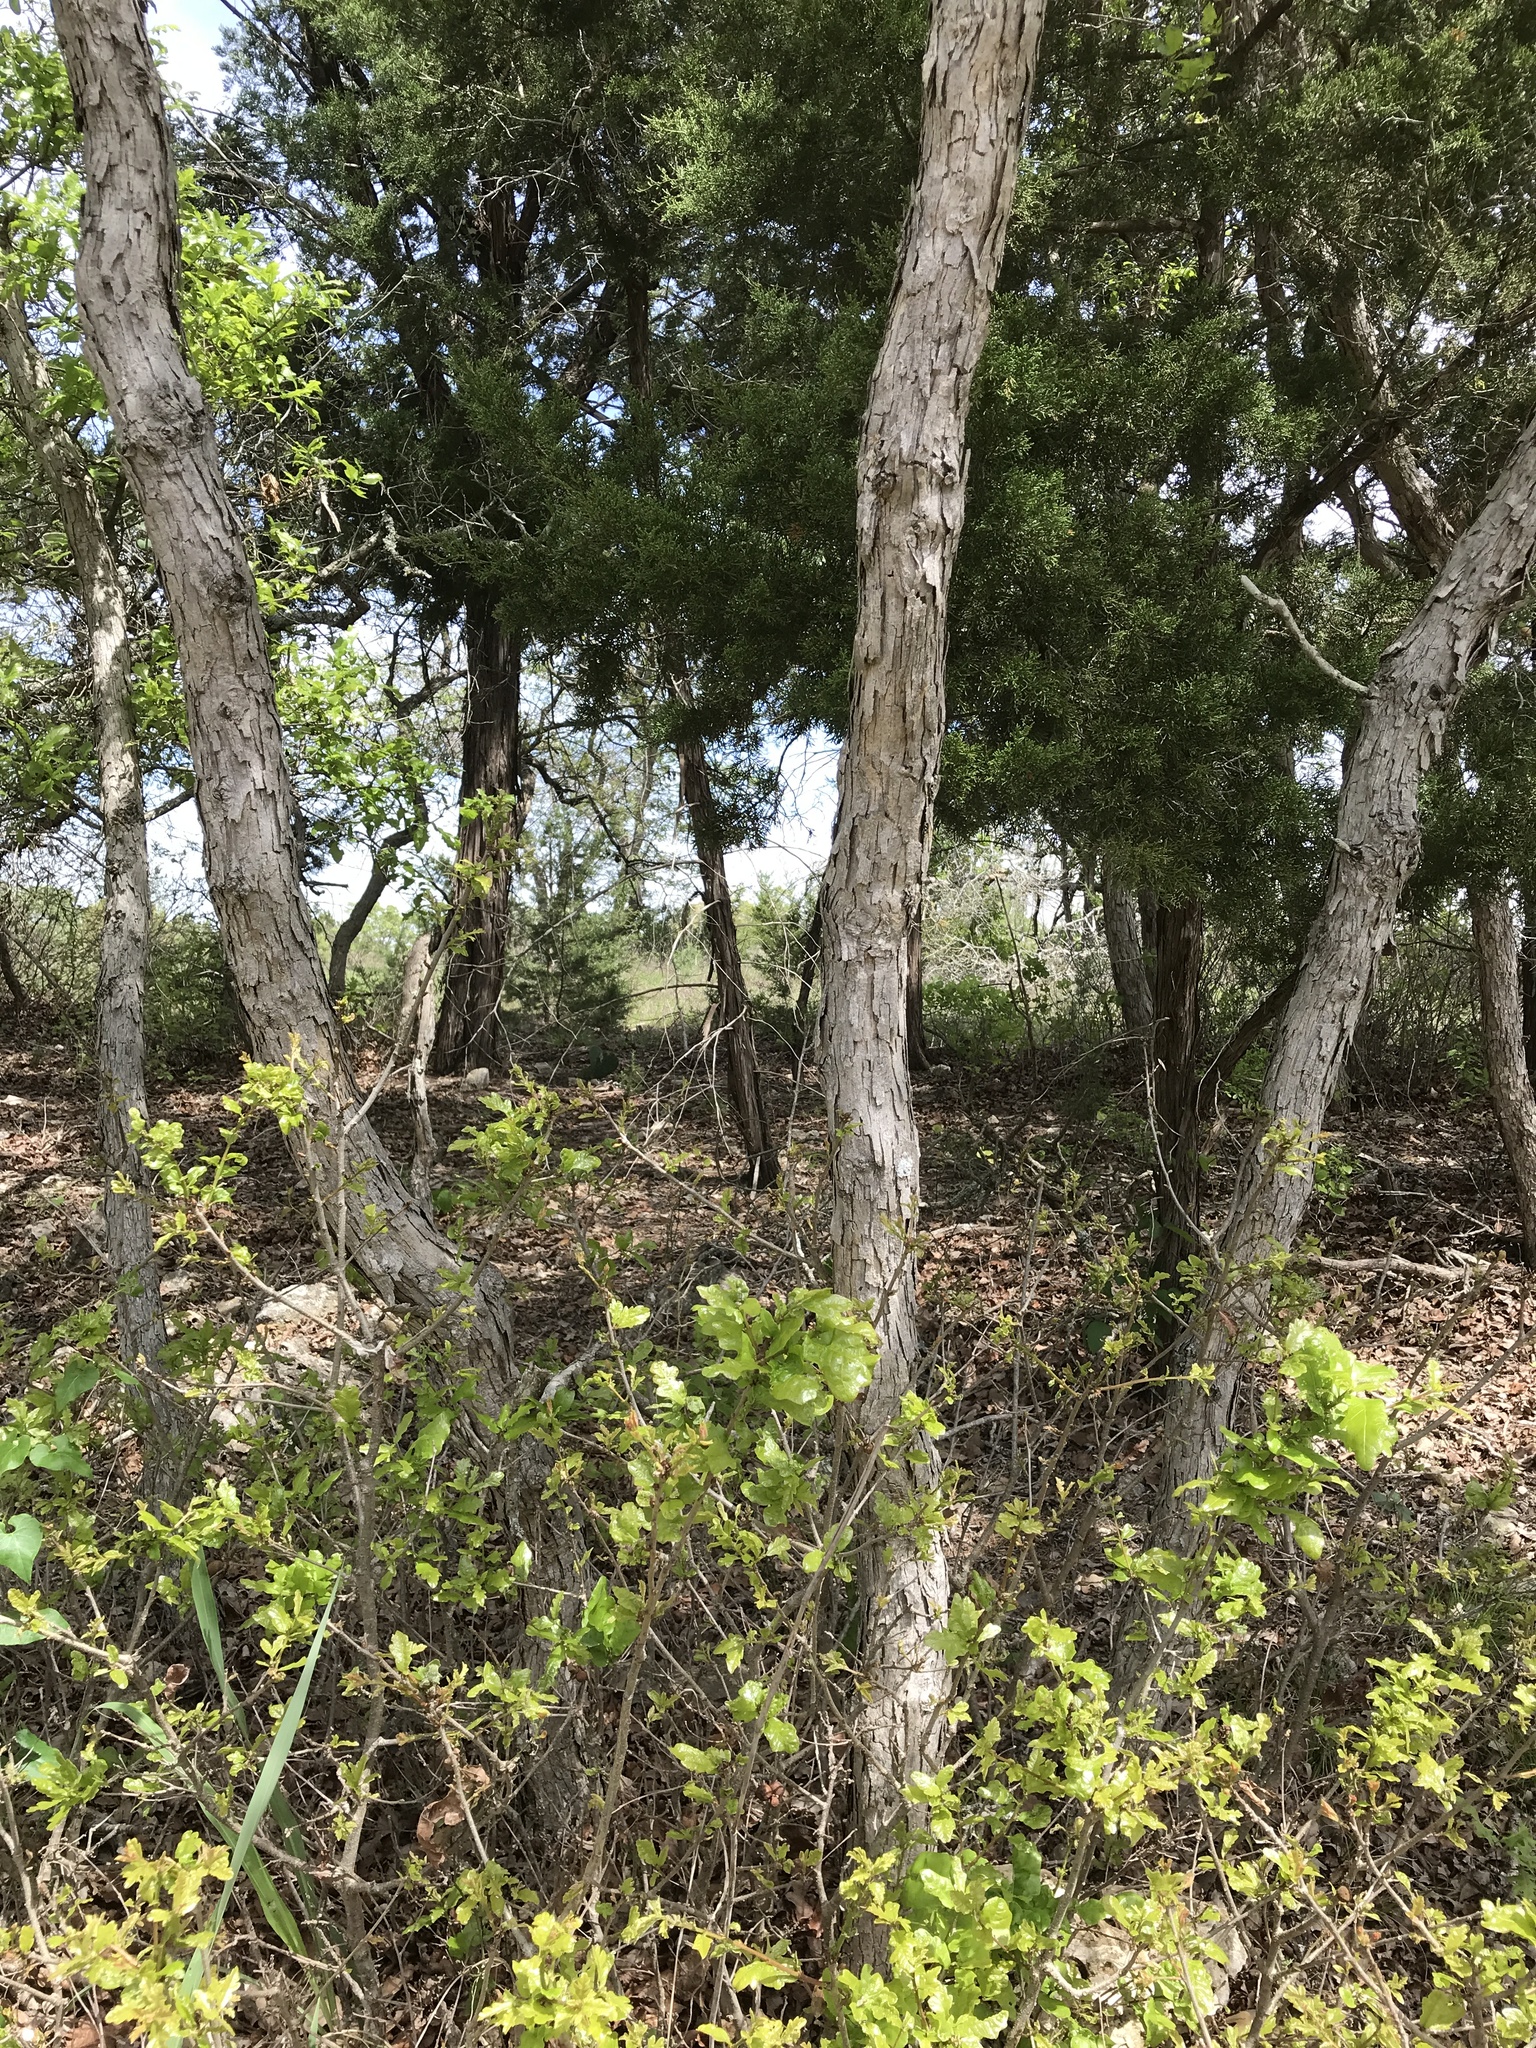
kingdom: Plantae
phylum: Tracheophyta
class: Magnoliopsida
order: Fagales
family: Fagaceae
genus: Quercus
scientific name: Quercus sinuata
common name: Durand oak
